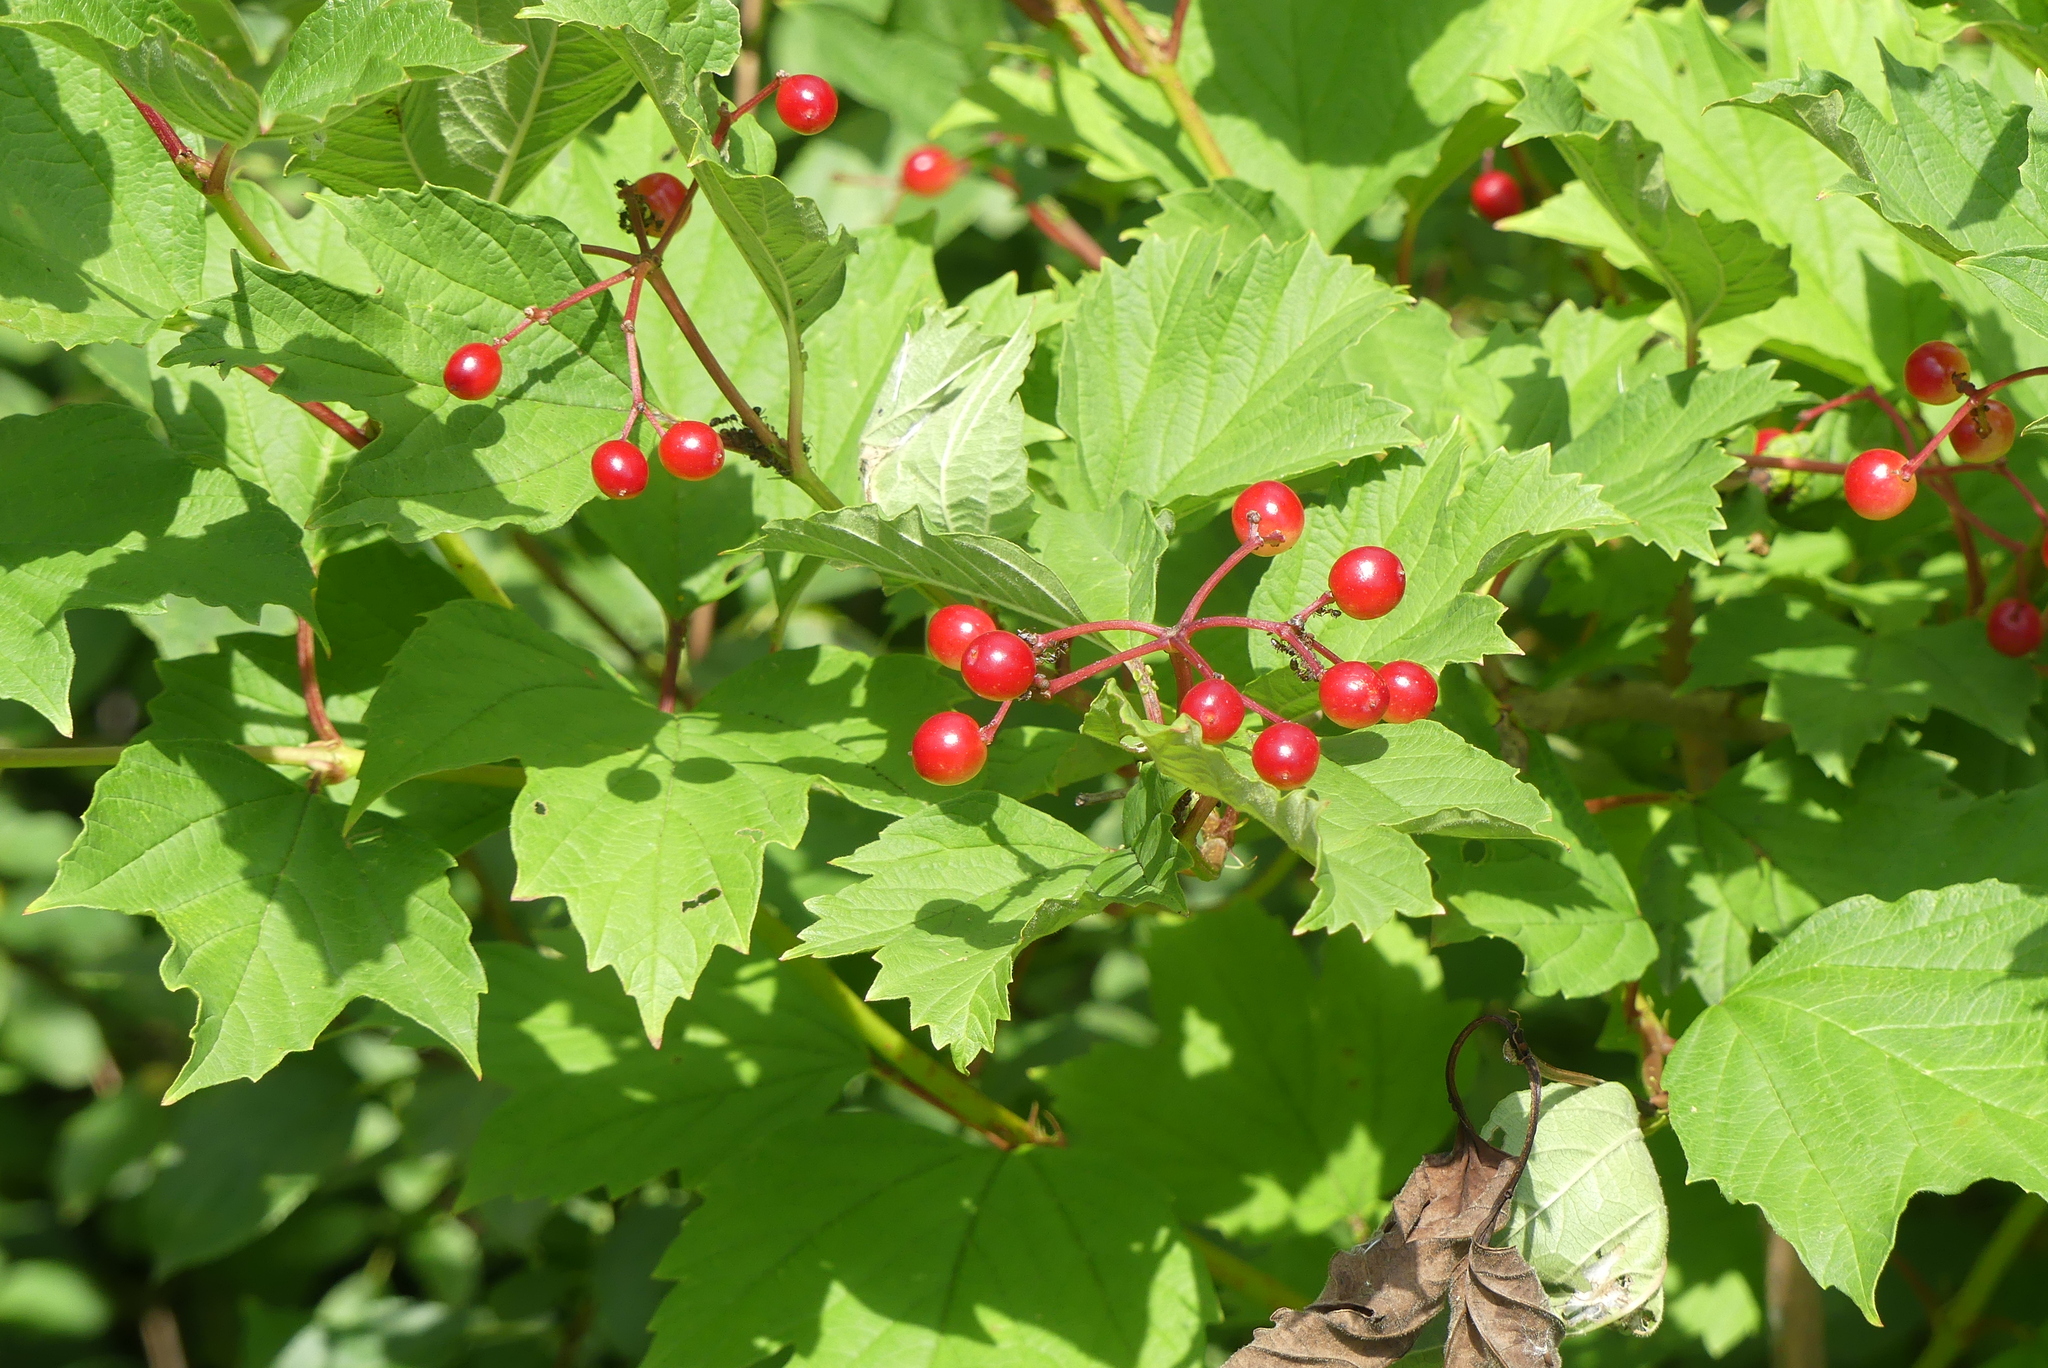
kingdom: Plantae
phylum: Tracheophyta
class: Magnoliopsida
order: Dipsacales
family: Viburnaceae
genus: Viburnum
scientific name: Viburnum opulus
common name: Guelder-rose
